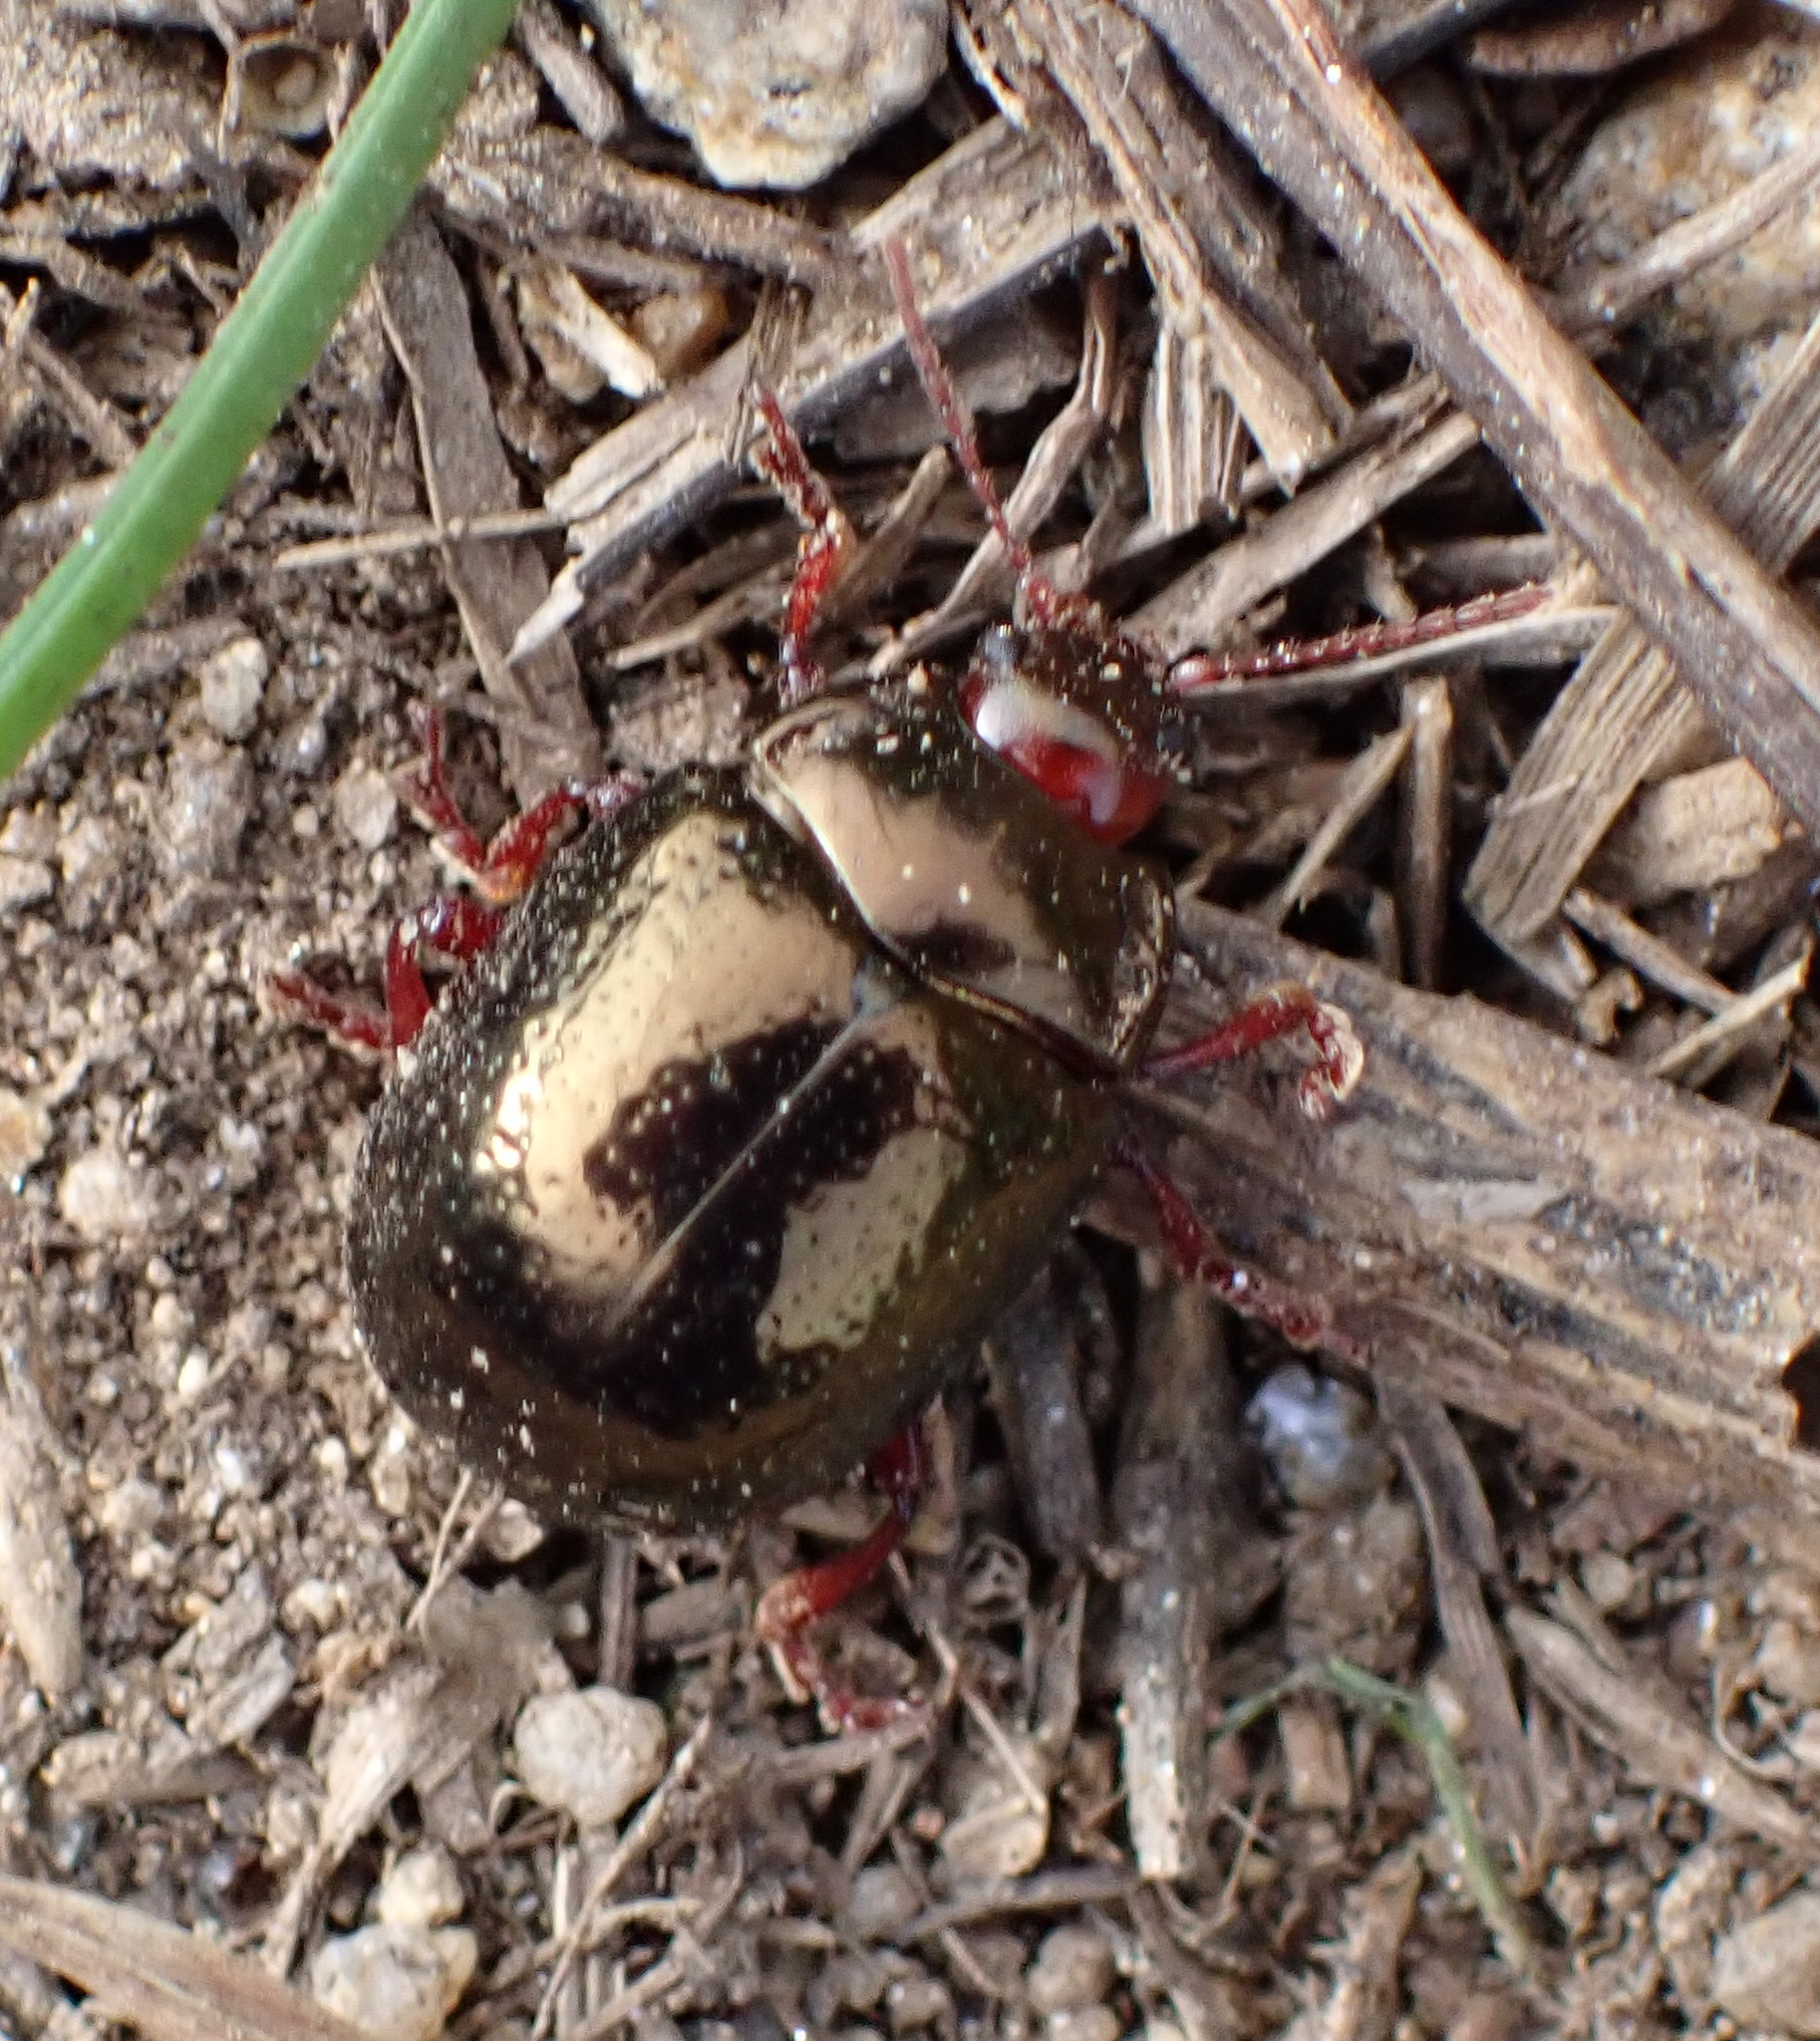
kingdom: Animalia
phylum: Arthropoda
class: Insecta
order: Coleoptera
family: Chrysomelidae
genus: Chrysolina
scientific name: Chrysolina bankii
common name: Leaf beetle
